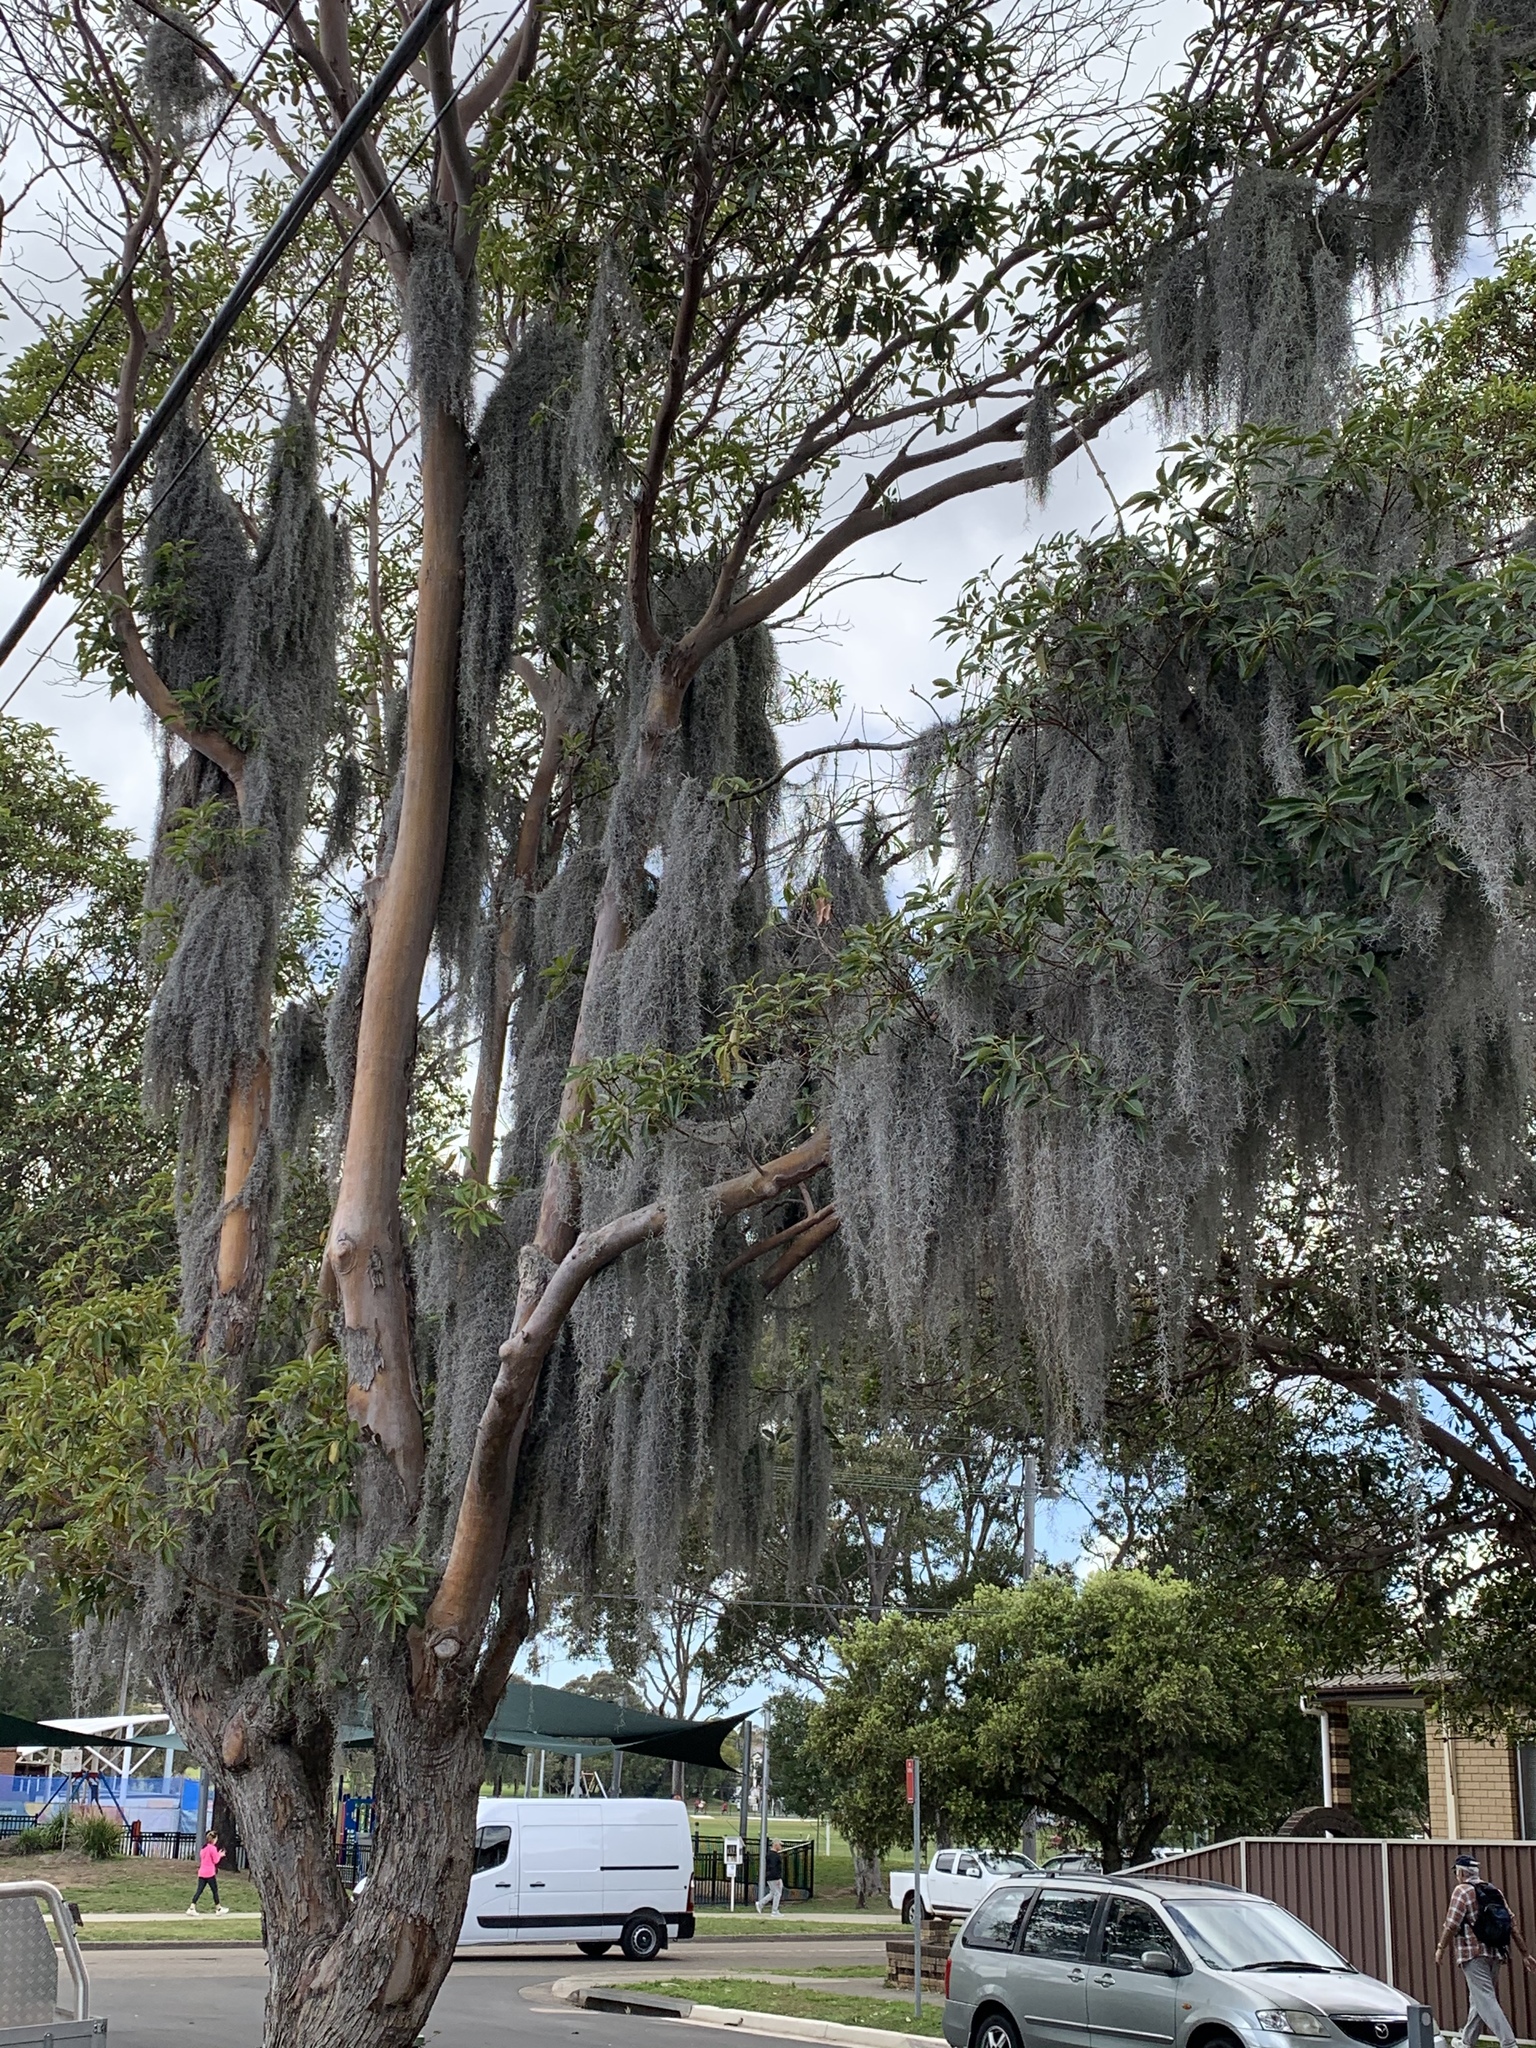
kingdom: Plantae
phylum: Tracheophyta
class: Liliopsida
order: Poales
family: Bromeliaceae
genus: Tillandsia
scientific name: Tillandsia usneoides
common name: Spanish moss
